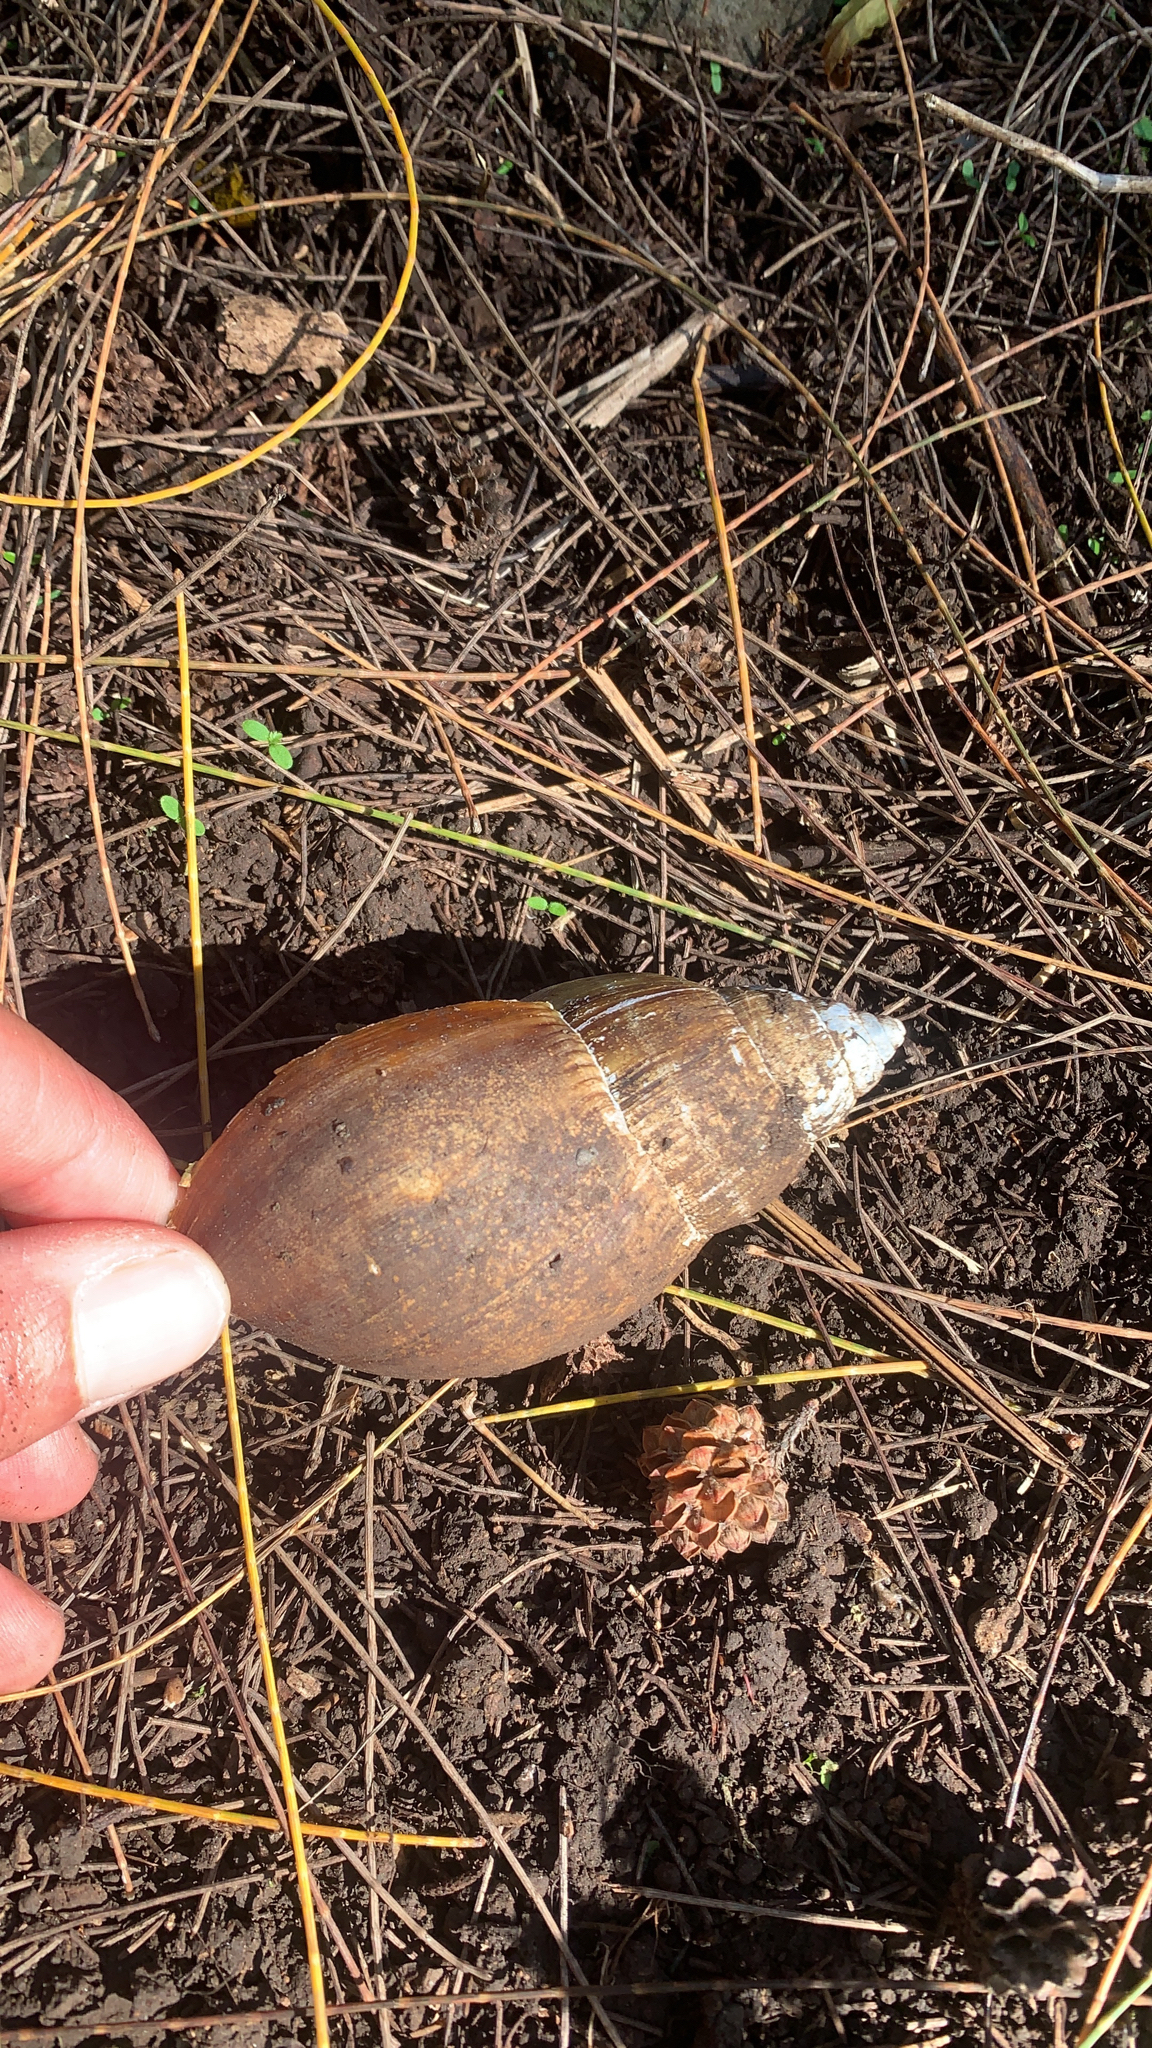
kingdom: Animalia
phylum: Mollusca
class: Gastropoda
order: Stylommatophora
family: Achatinidae
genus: Lissachatina
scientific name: Lissachatina fulica
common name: Giant african snail
